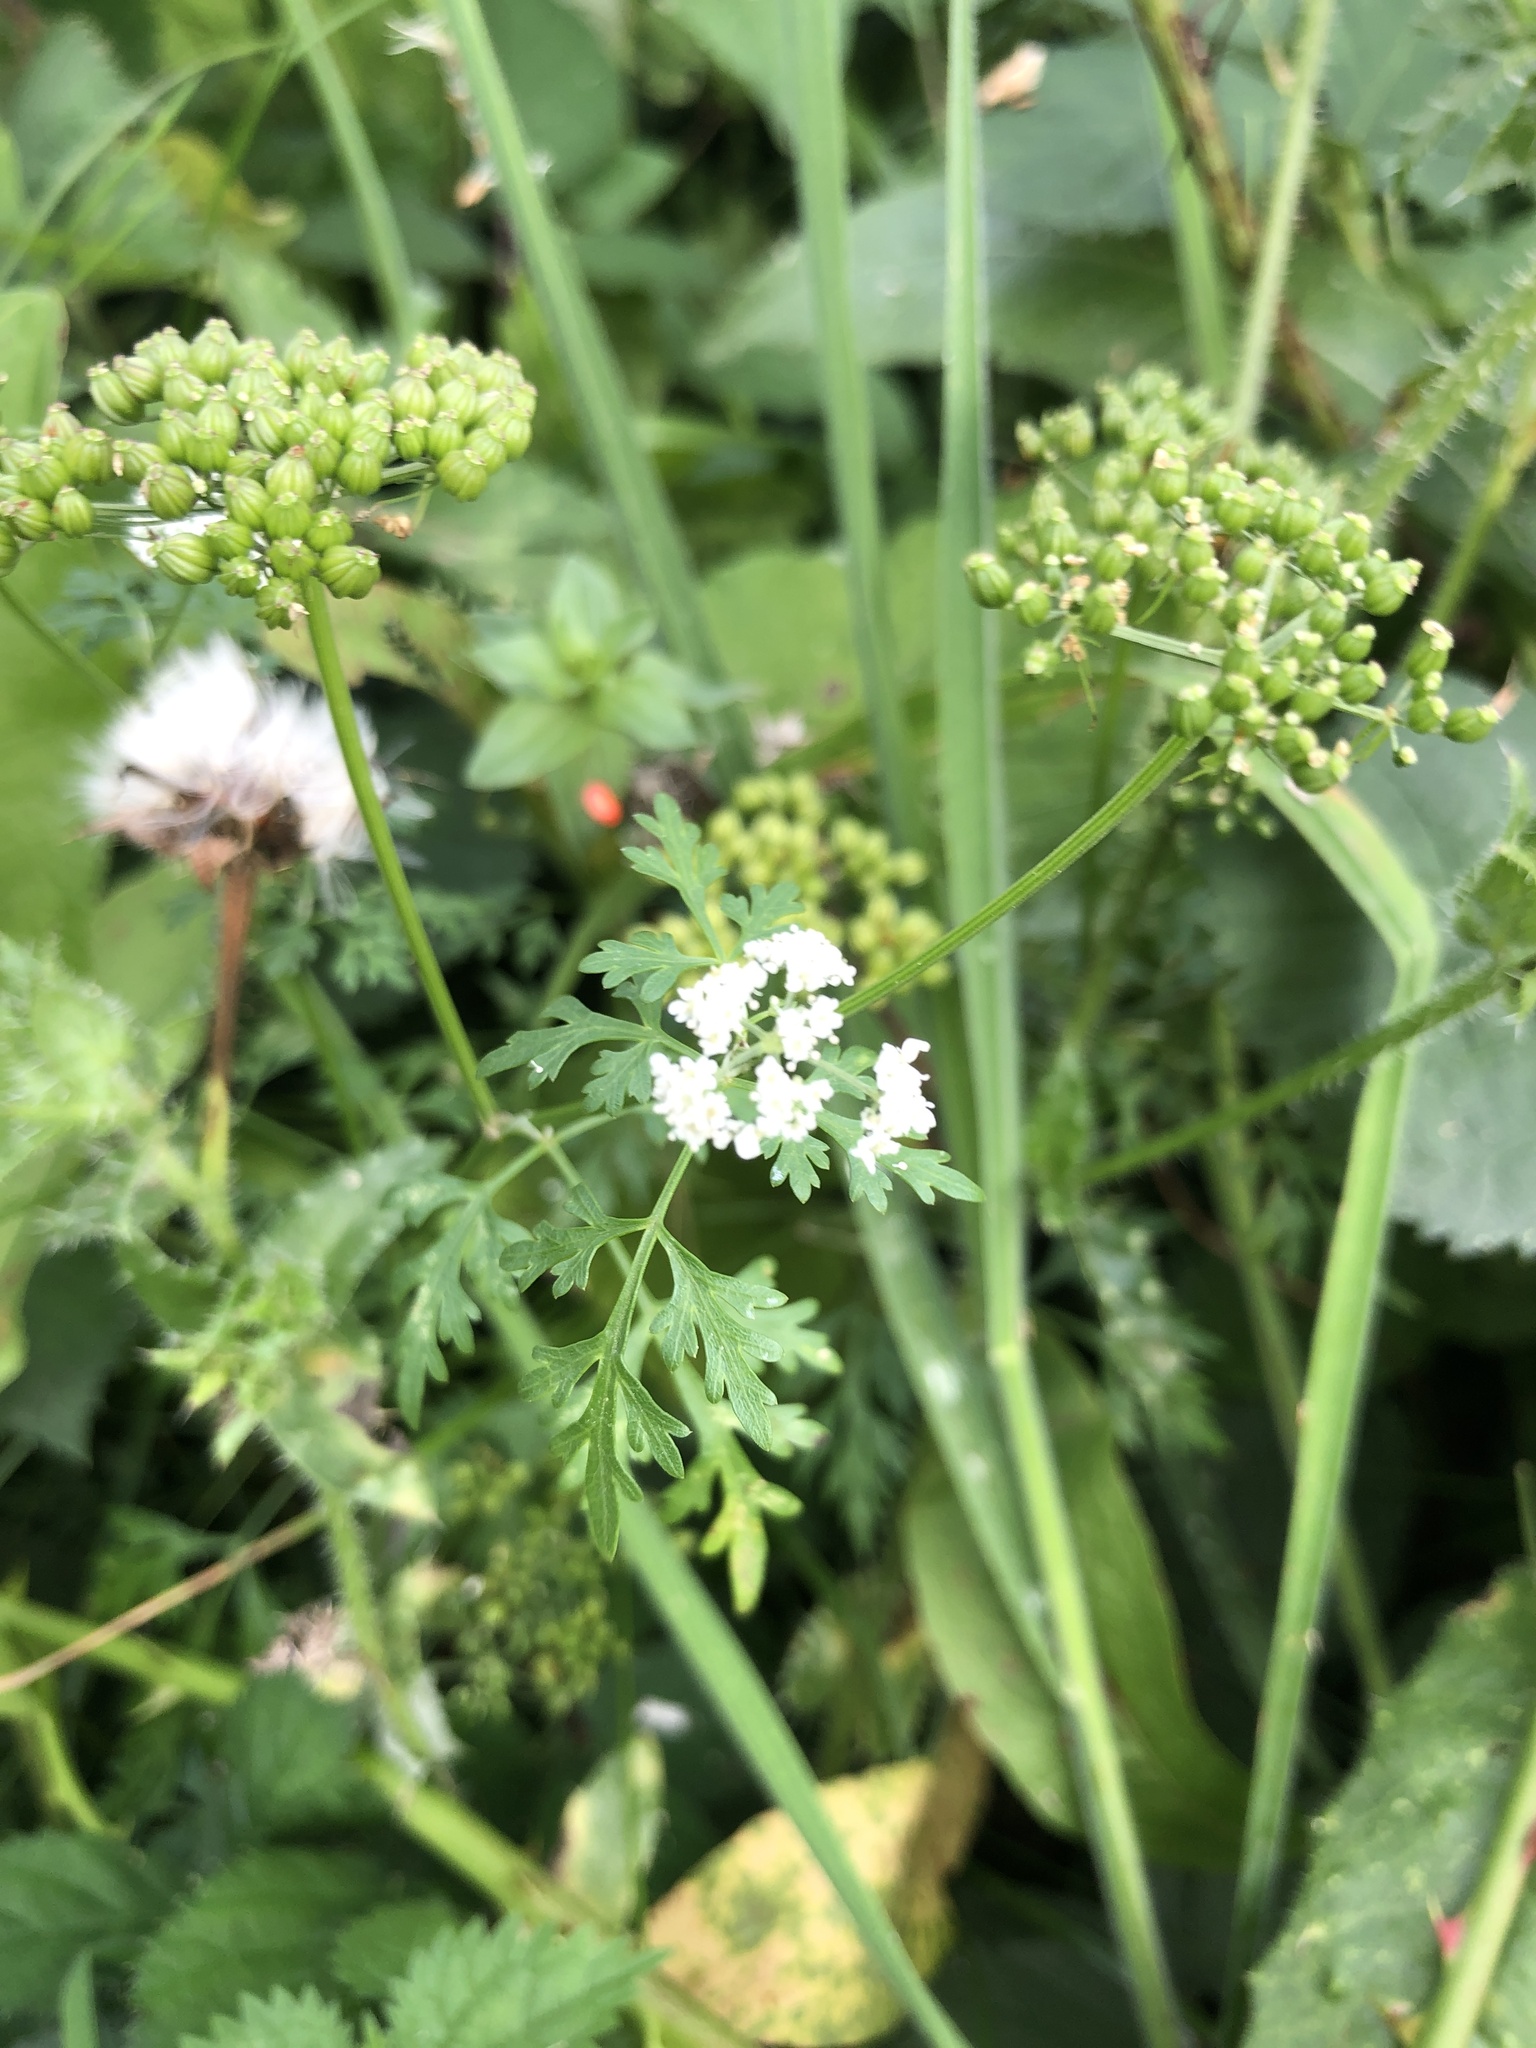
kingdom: Plantae
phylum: Tracheophyta
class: Magnoliopsida
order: Apiales
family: Apiaceae
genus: Aethusa
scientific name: Aethusa cynapium
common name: Fool's parsley
